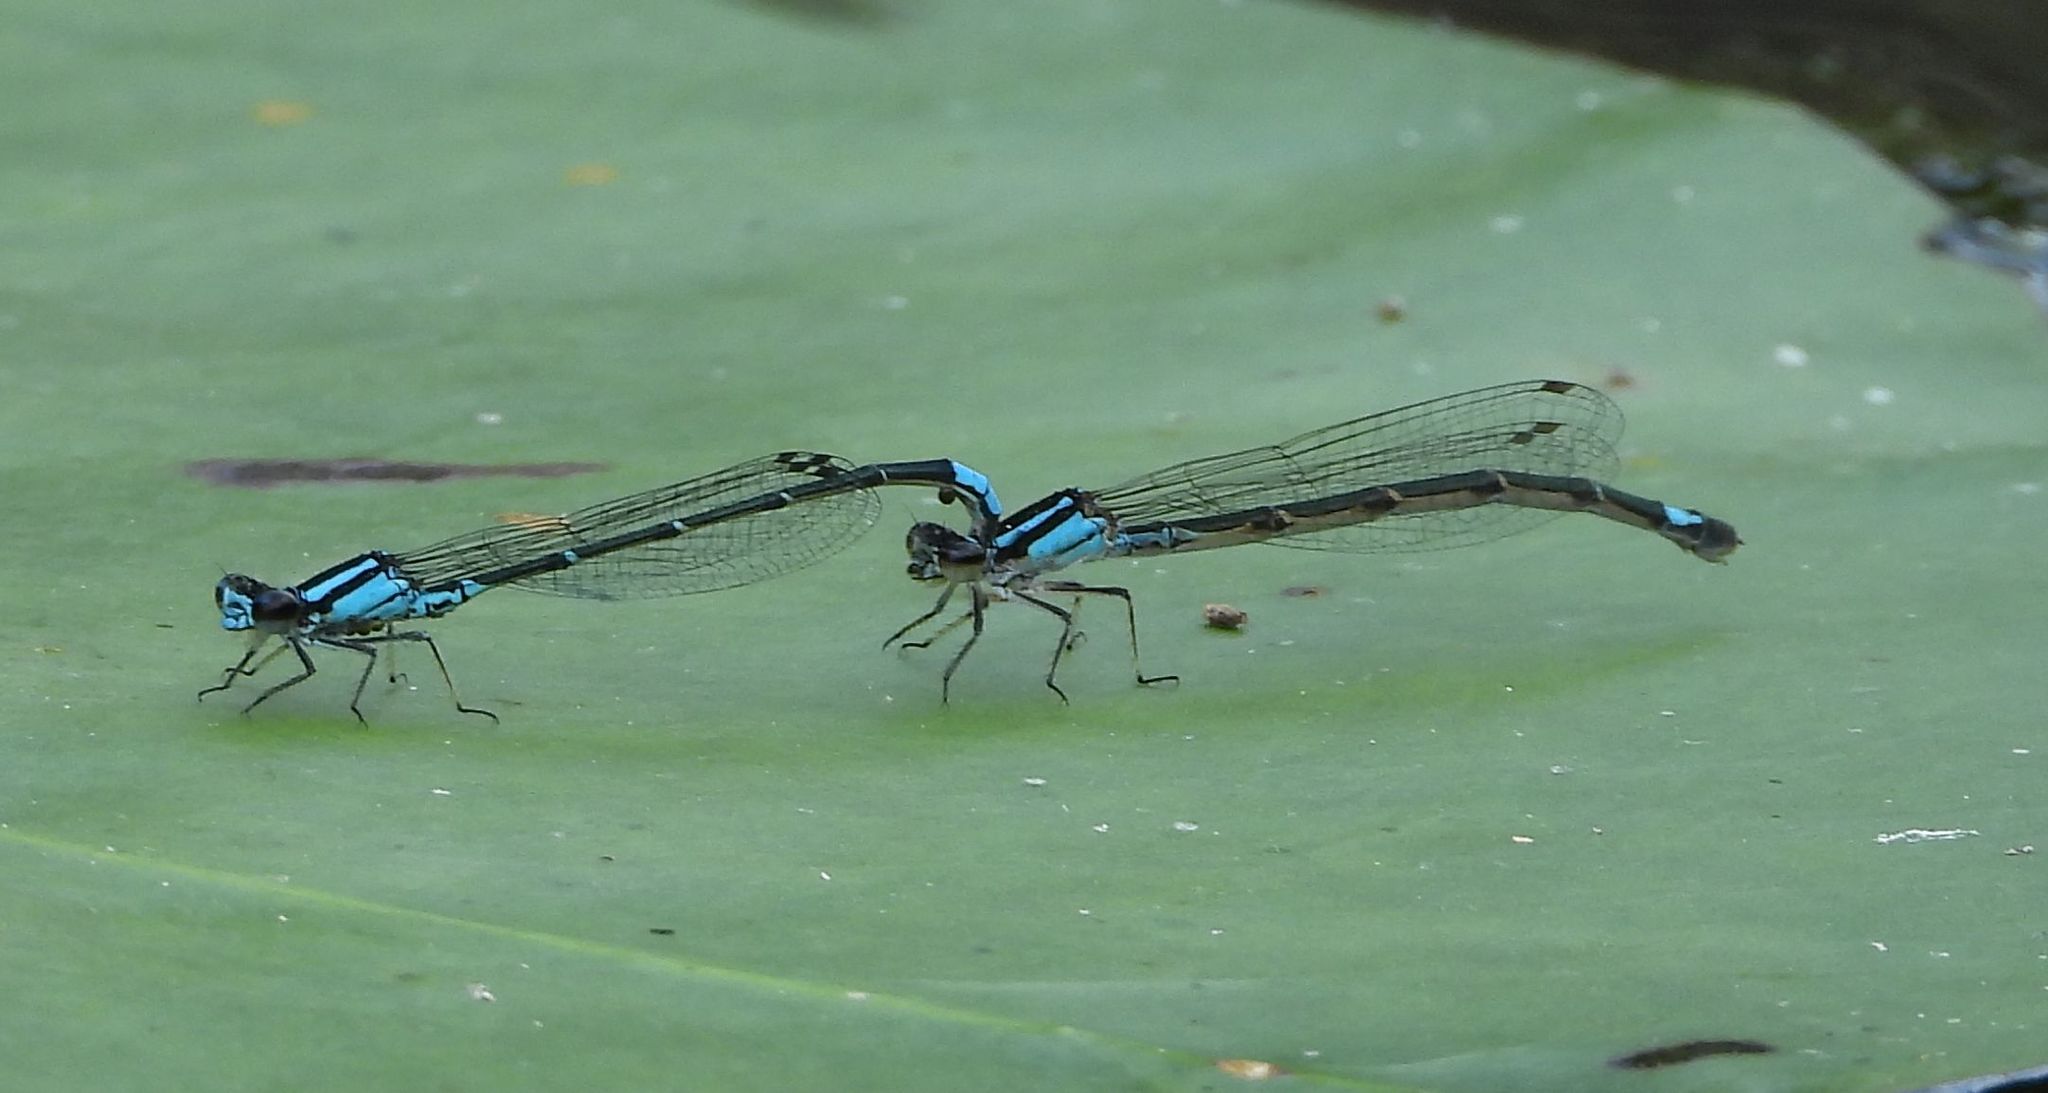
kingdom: Animalia
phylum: Arthropoda
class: Insecta
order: Odonata
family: Coenagrionidae
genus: Enallagma
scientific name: Enallagma geminatum
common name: Skimming bluet
